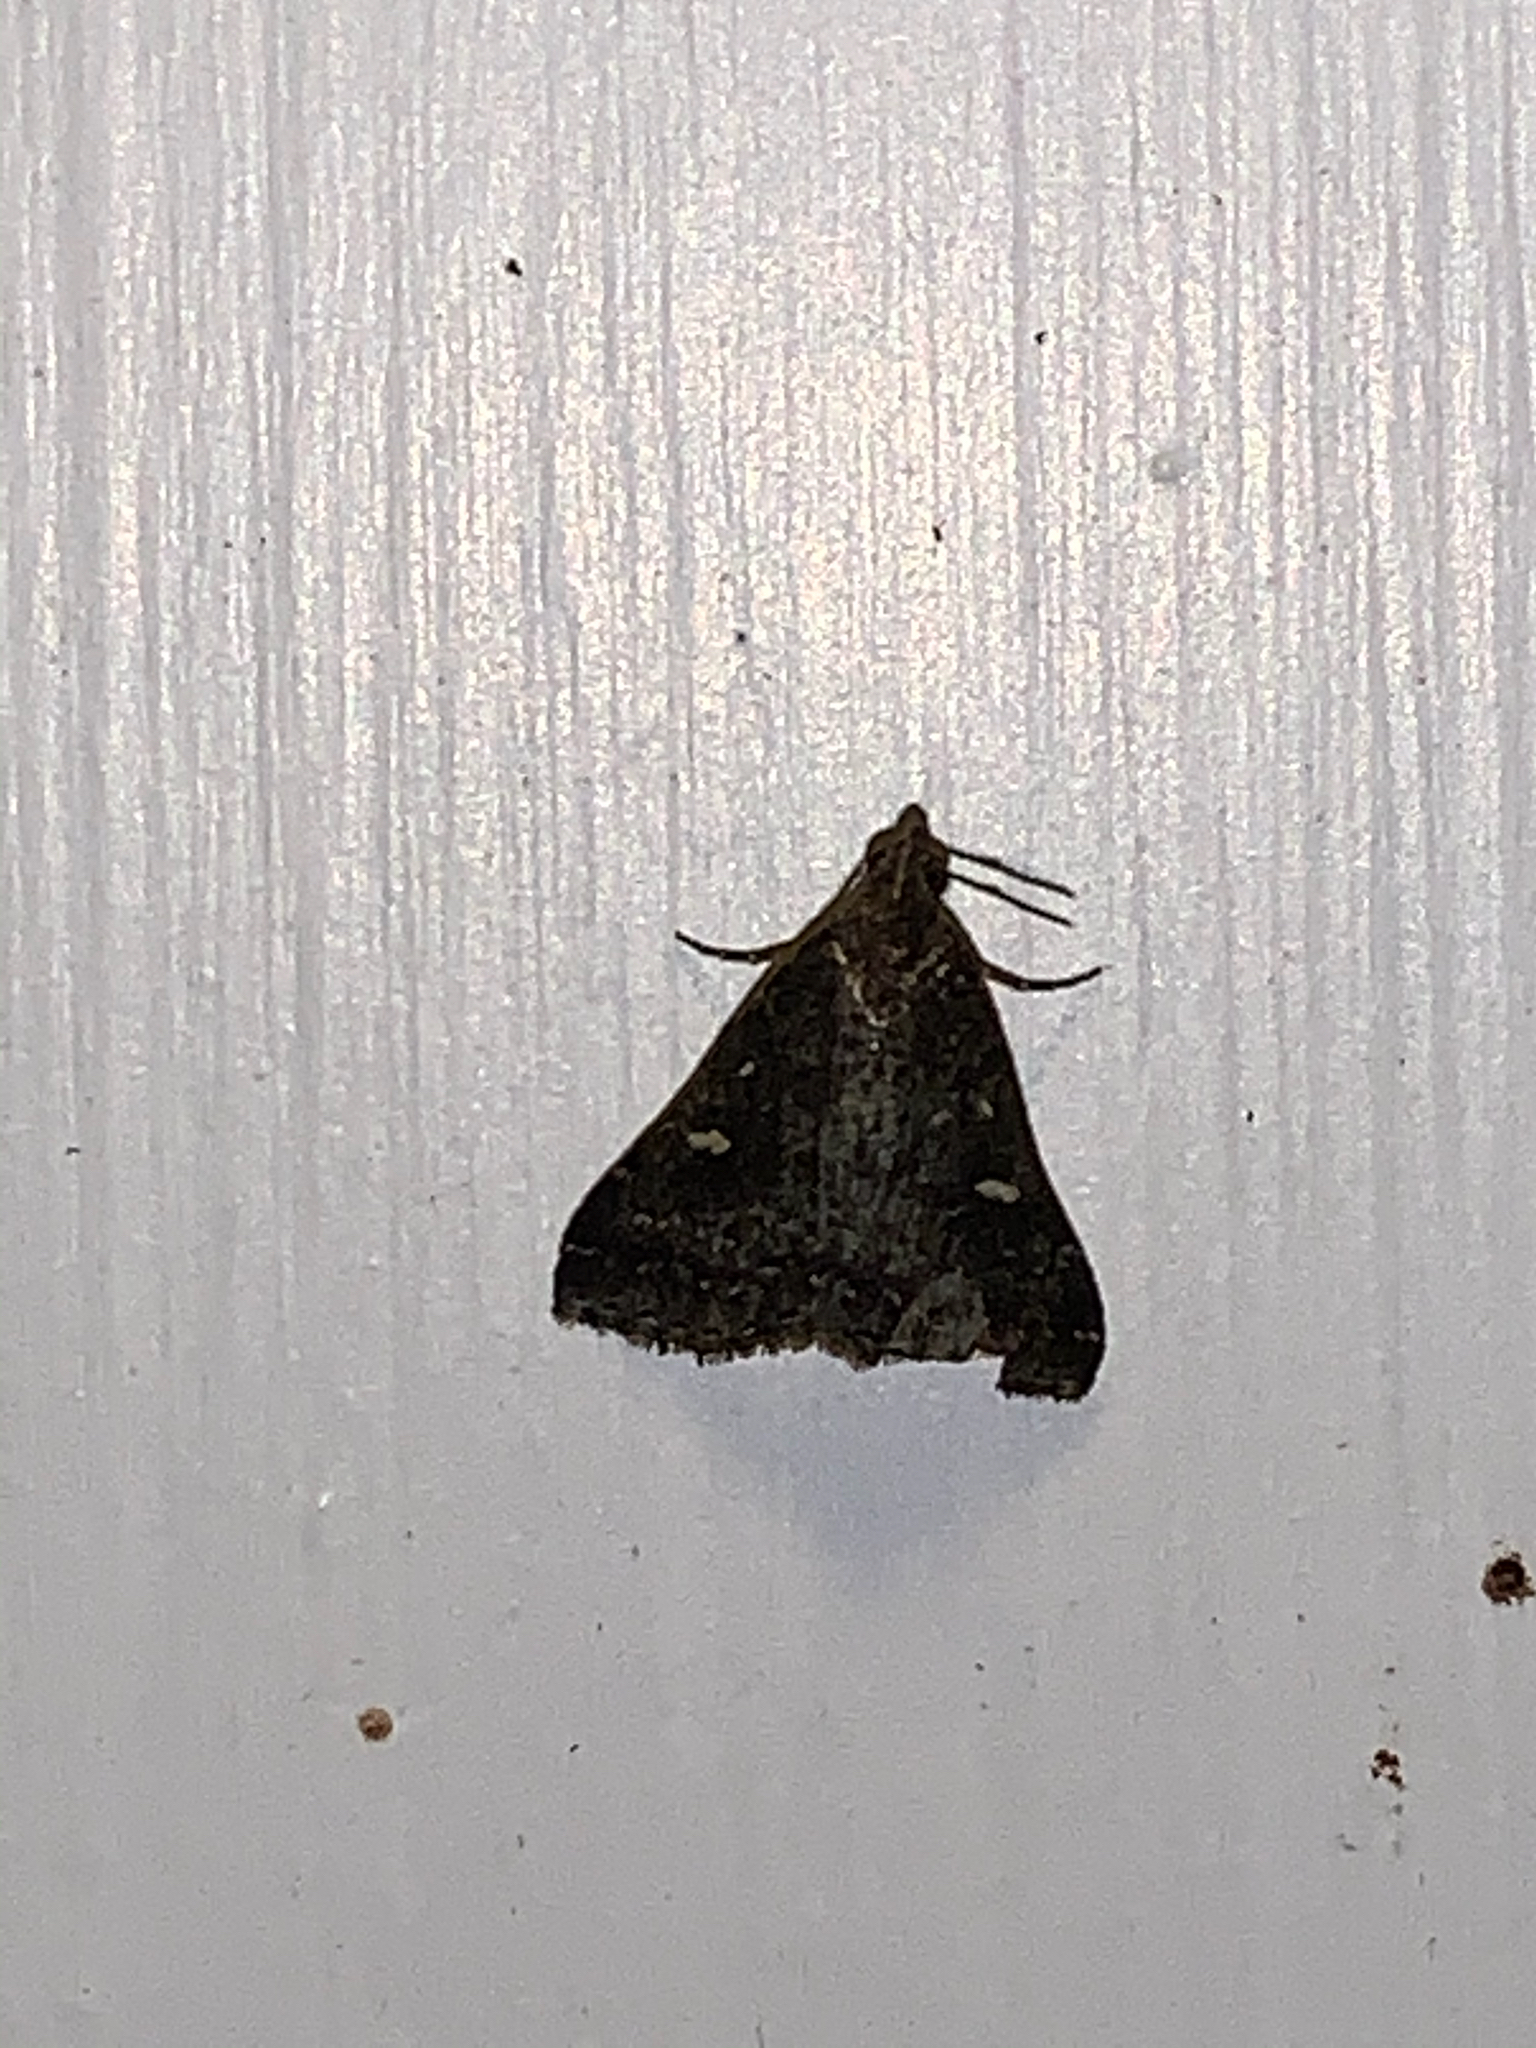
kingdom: Animalia
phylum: Arthropoda
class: Insecta
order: Lepidoptera
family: Erebidae
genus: Tetanolita
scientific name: Tetanolita mynesalis
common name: Smoky tetanolita moth
